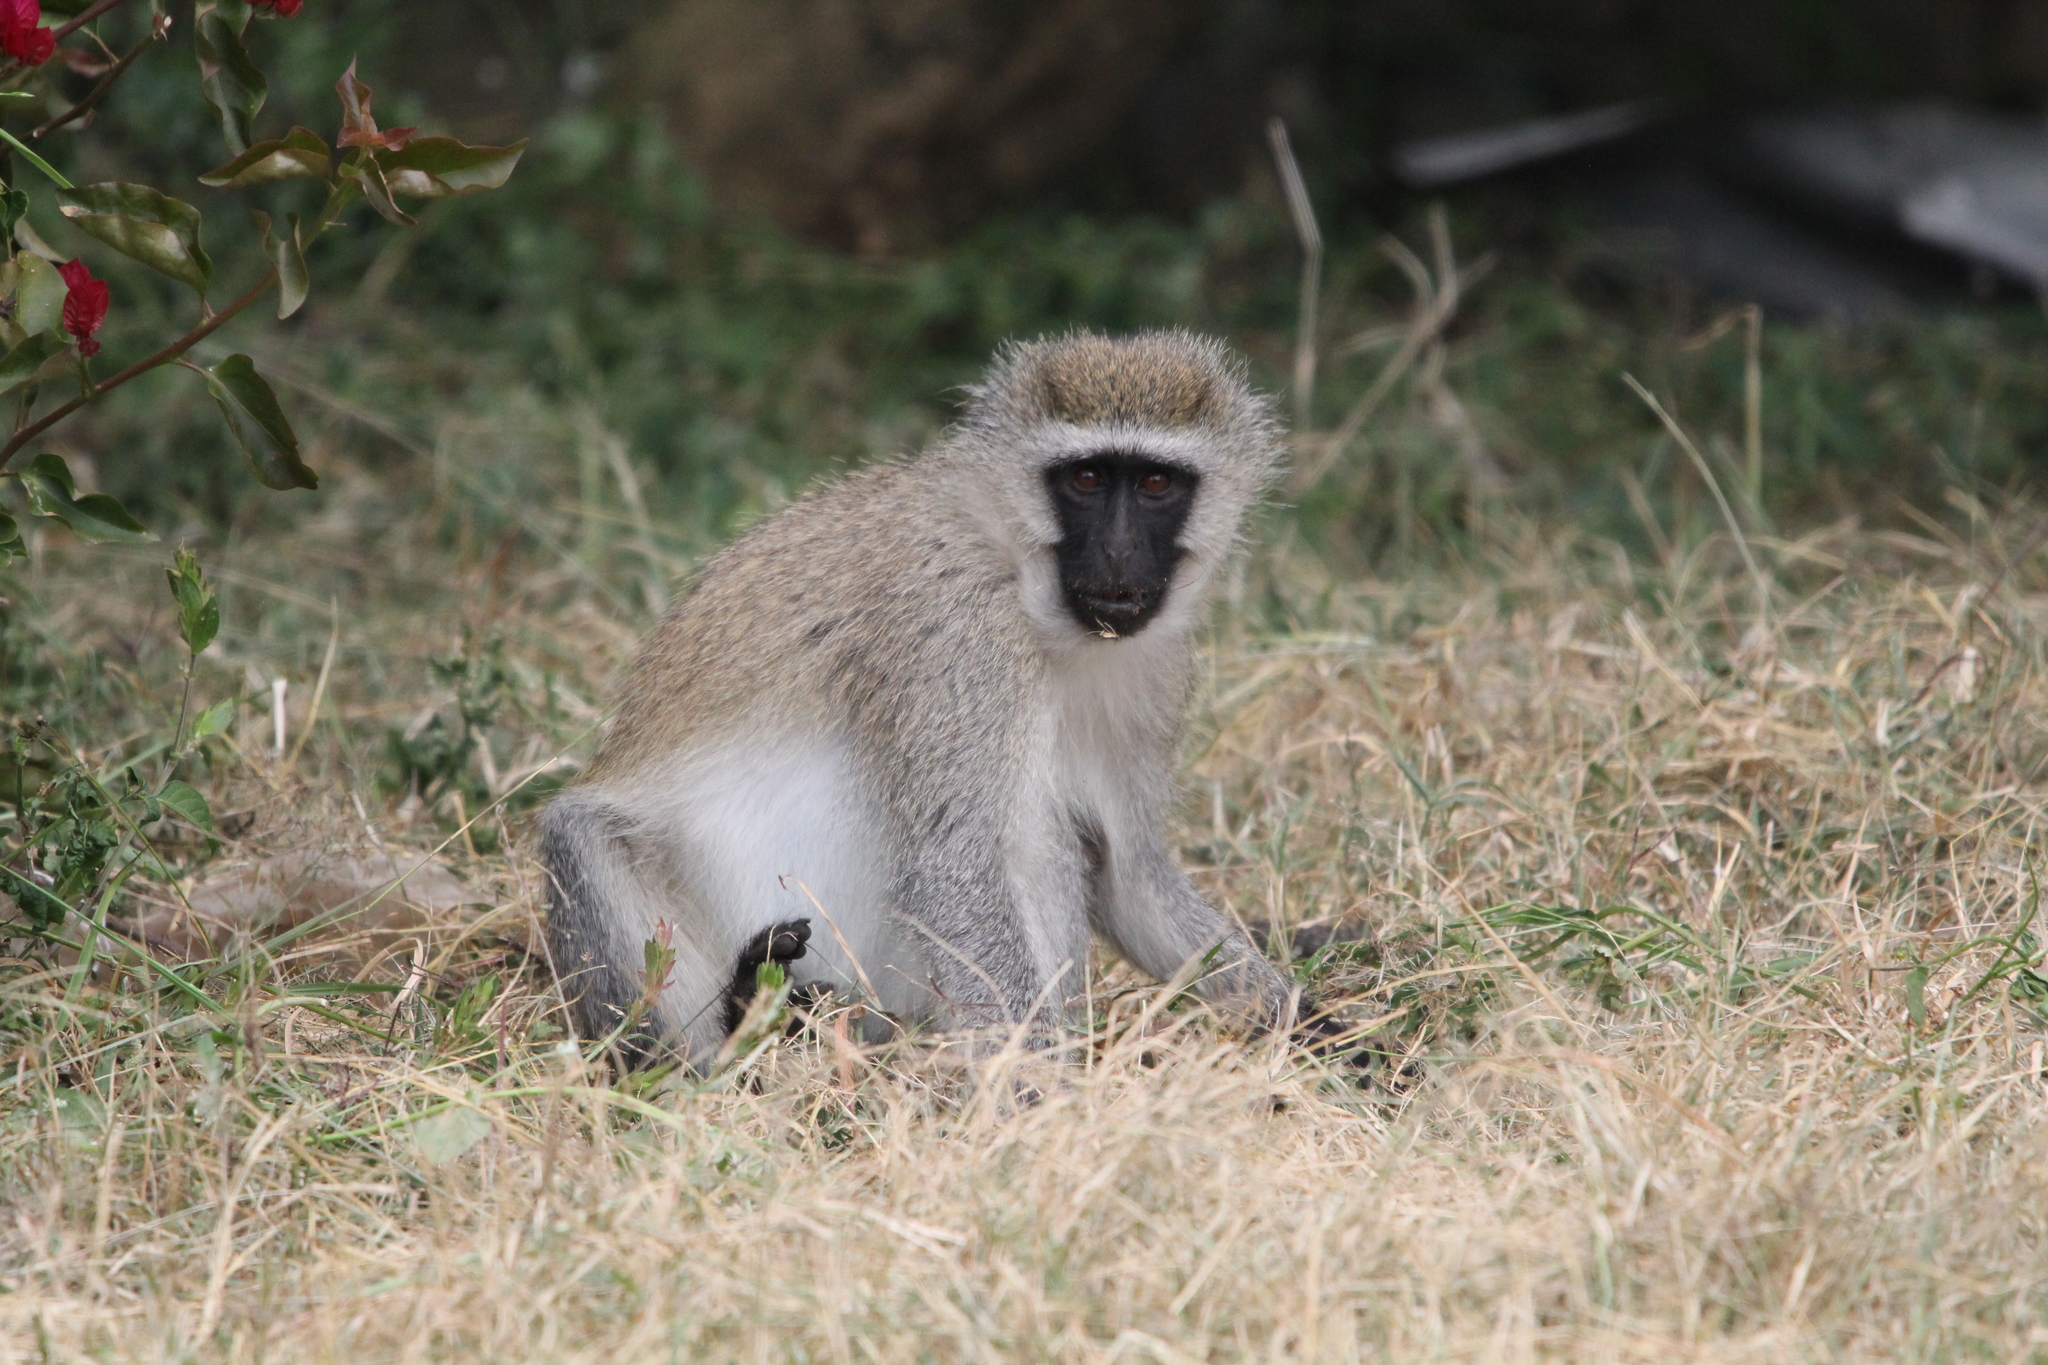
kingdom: Animalia
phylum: Chordata
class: Mammalia
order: Primates
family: Cercopithecidae
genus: Chlorocebus
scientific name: Chlorocebus pygerythrus
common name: Vervet monkey
